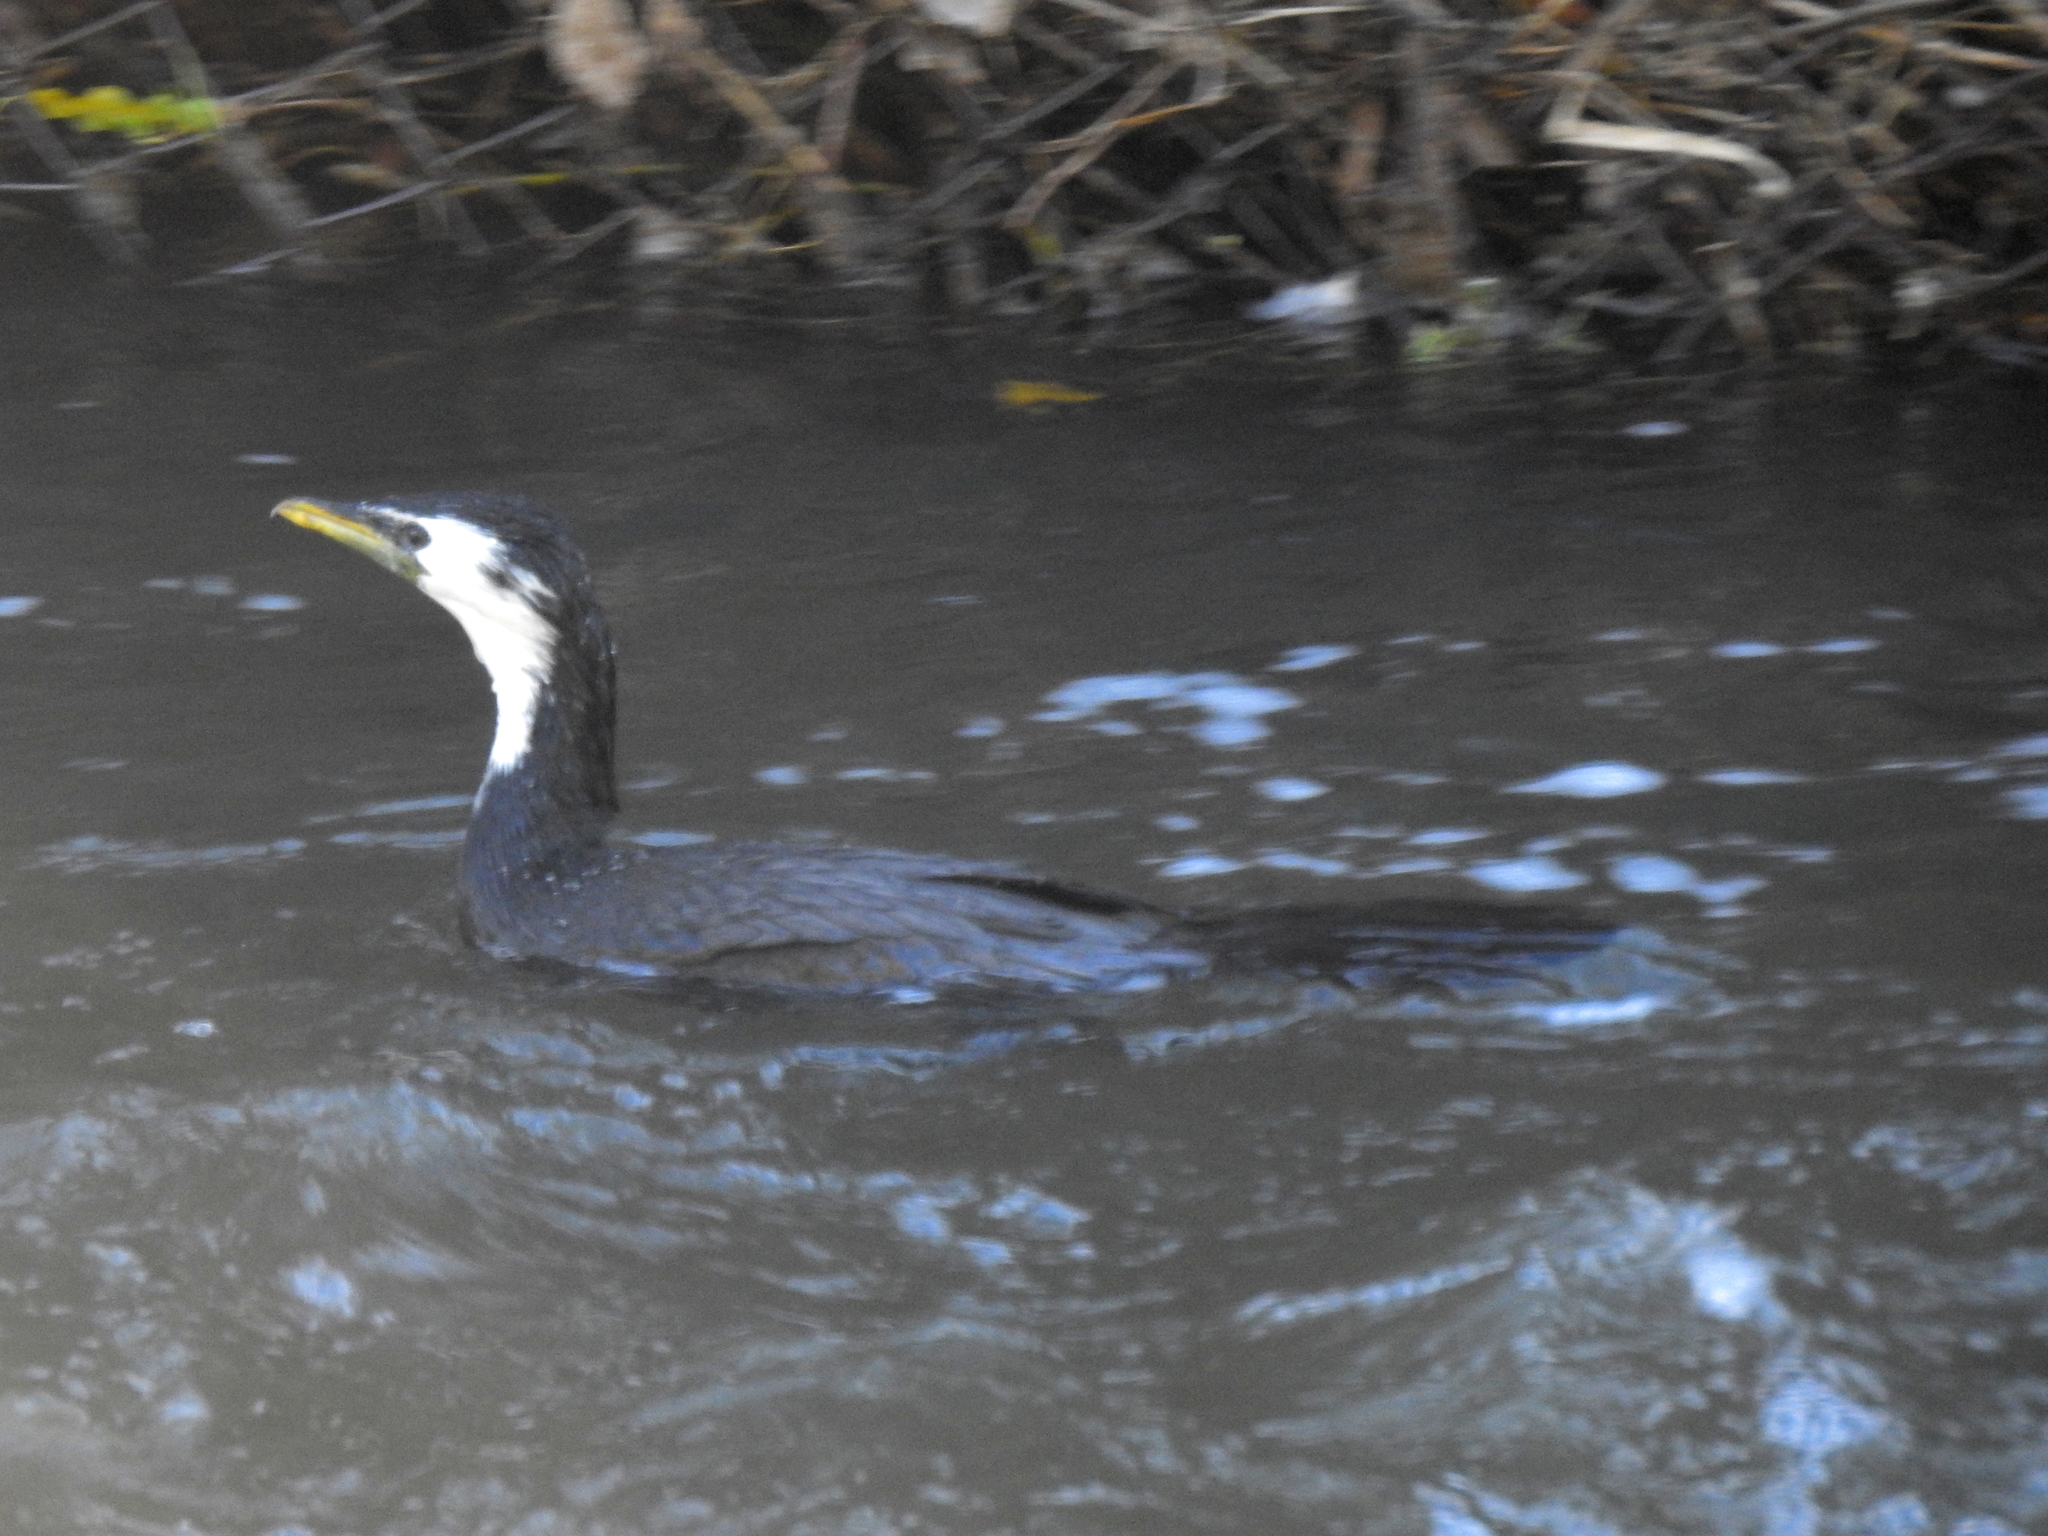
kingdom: Animalia
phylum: Chordata
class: Aves
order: Suliformes
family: Phalacrocoracidae
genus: Microcarbo
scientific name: Microcarbo melanoleucos
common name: Little pied cormorant
